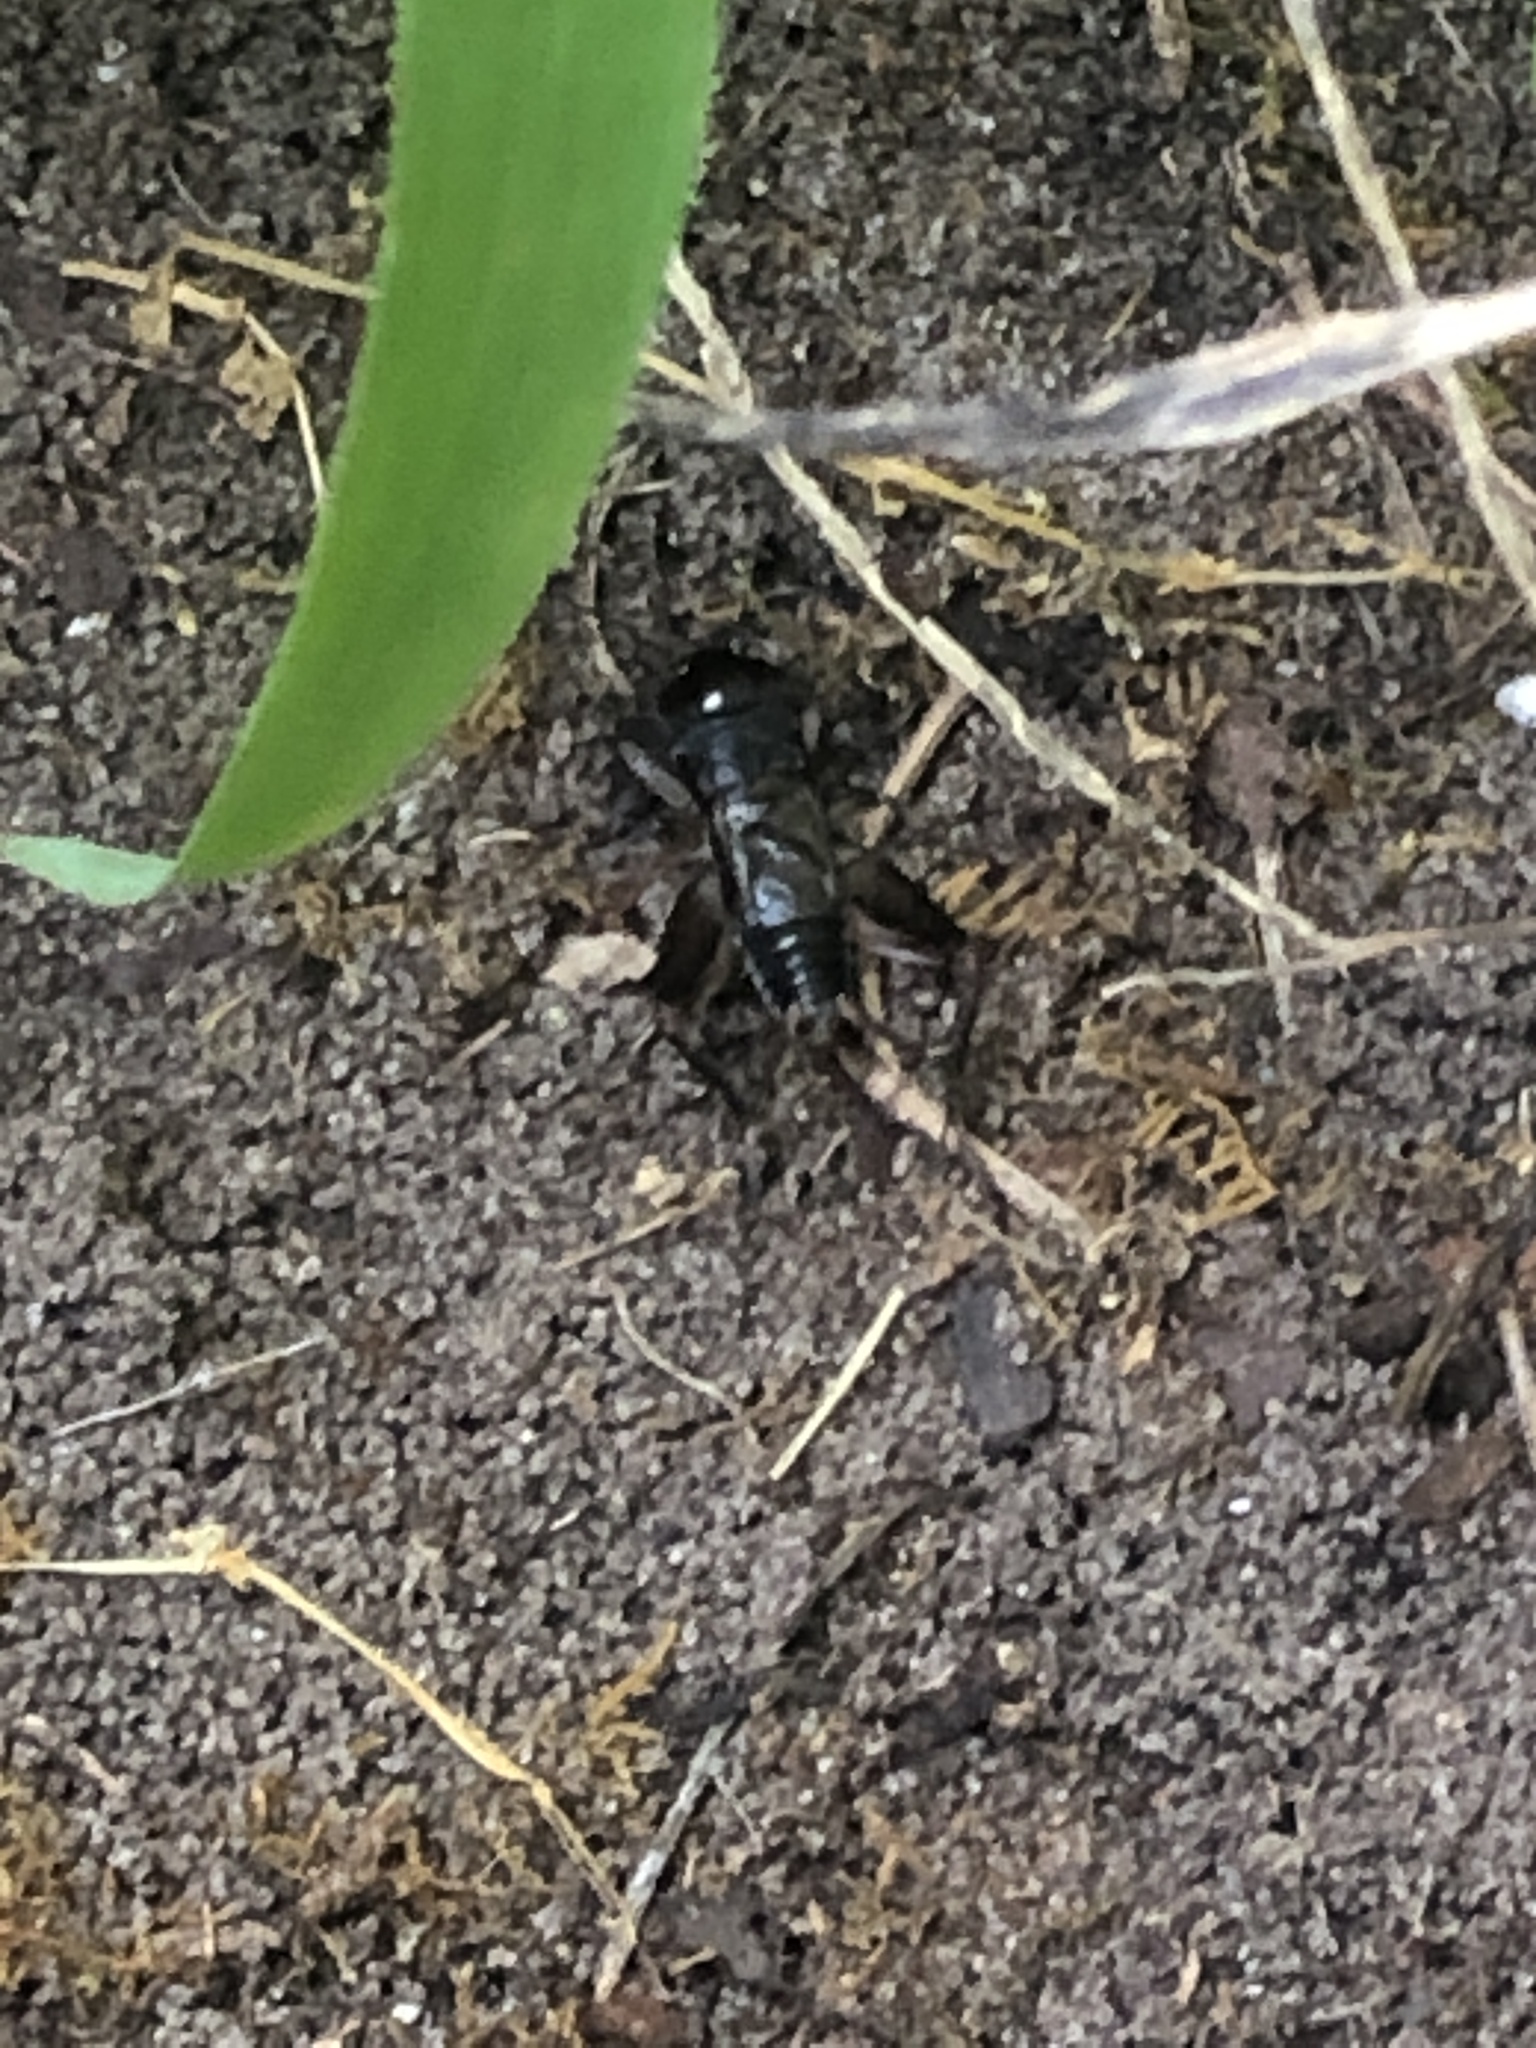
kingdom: Animalia
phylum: Arthropoda
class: Insecta
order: Orthoptera
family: Gryllidae
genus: Miogryllus
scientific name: Miogryllus verticalis
